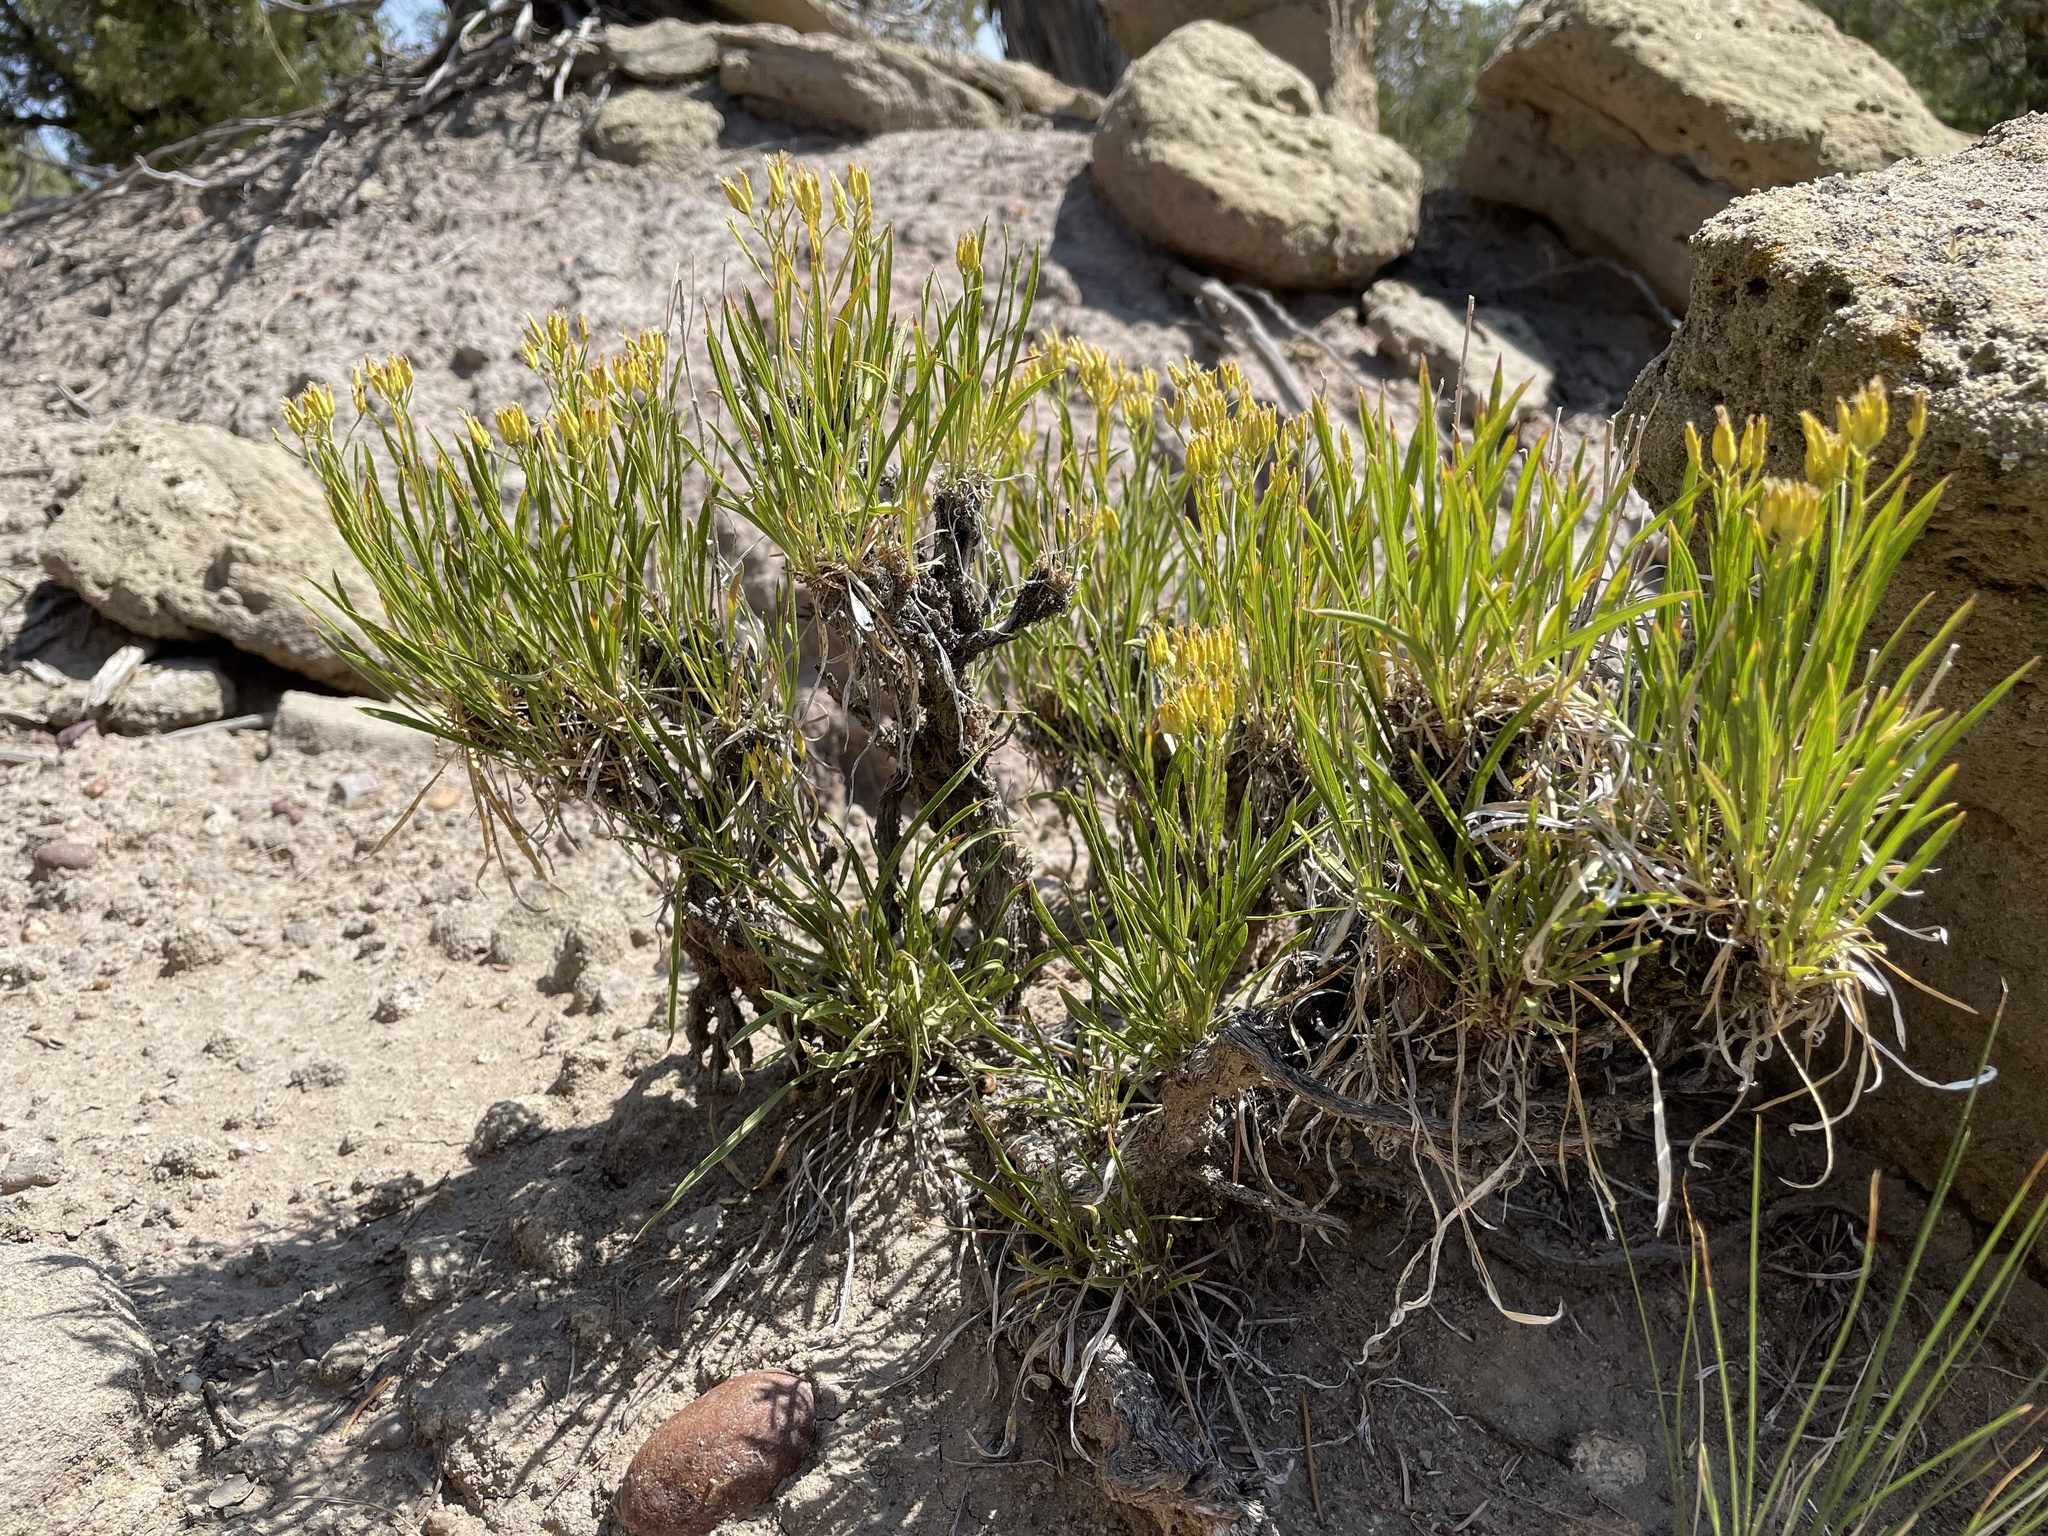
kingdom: Plantae
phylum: Tracheophyta
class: Magnoliopsida
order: Asterales
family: Asteraceae
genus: Petradoria
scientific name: Petradoria pumila
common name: Rock-goldenrod
